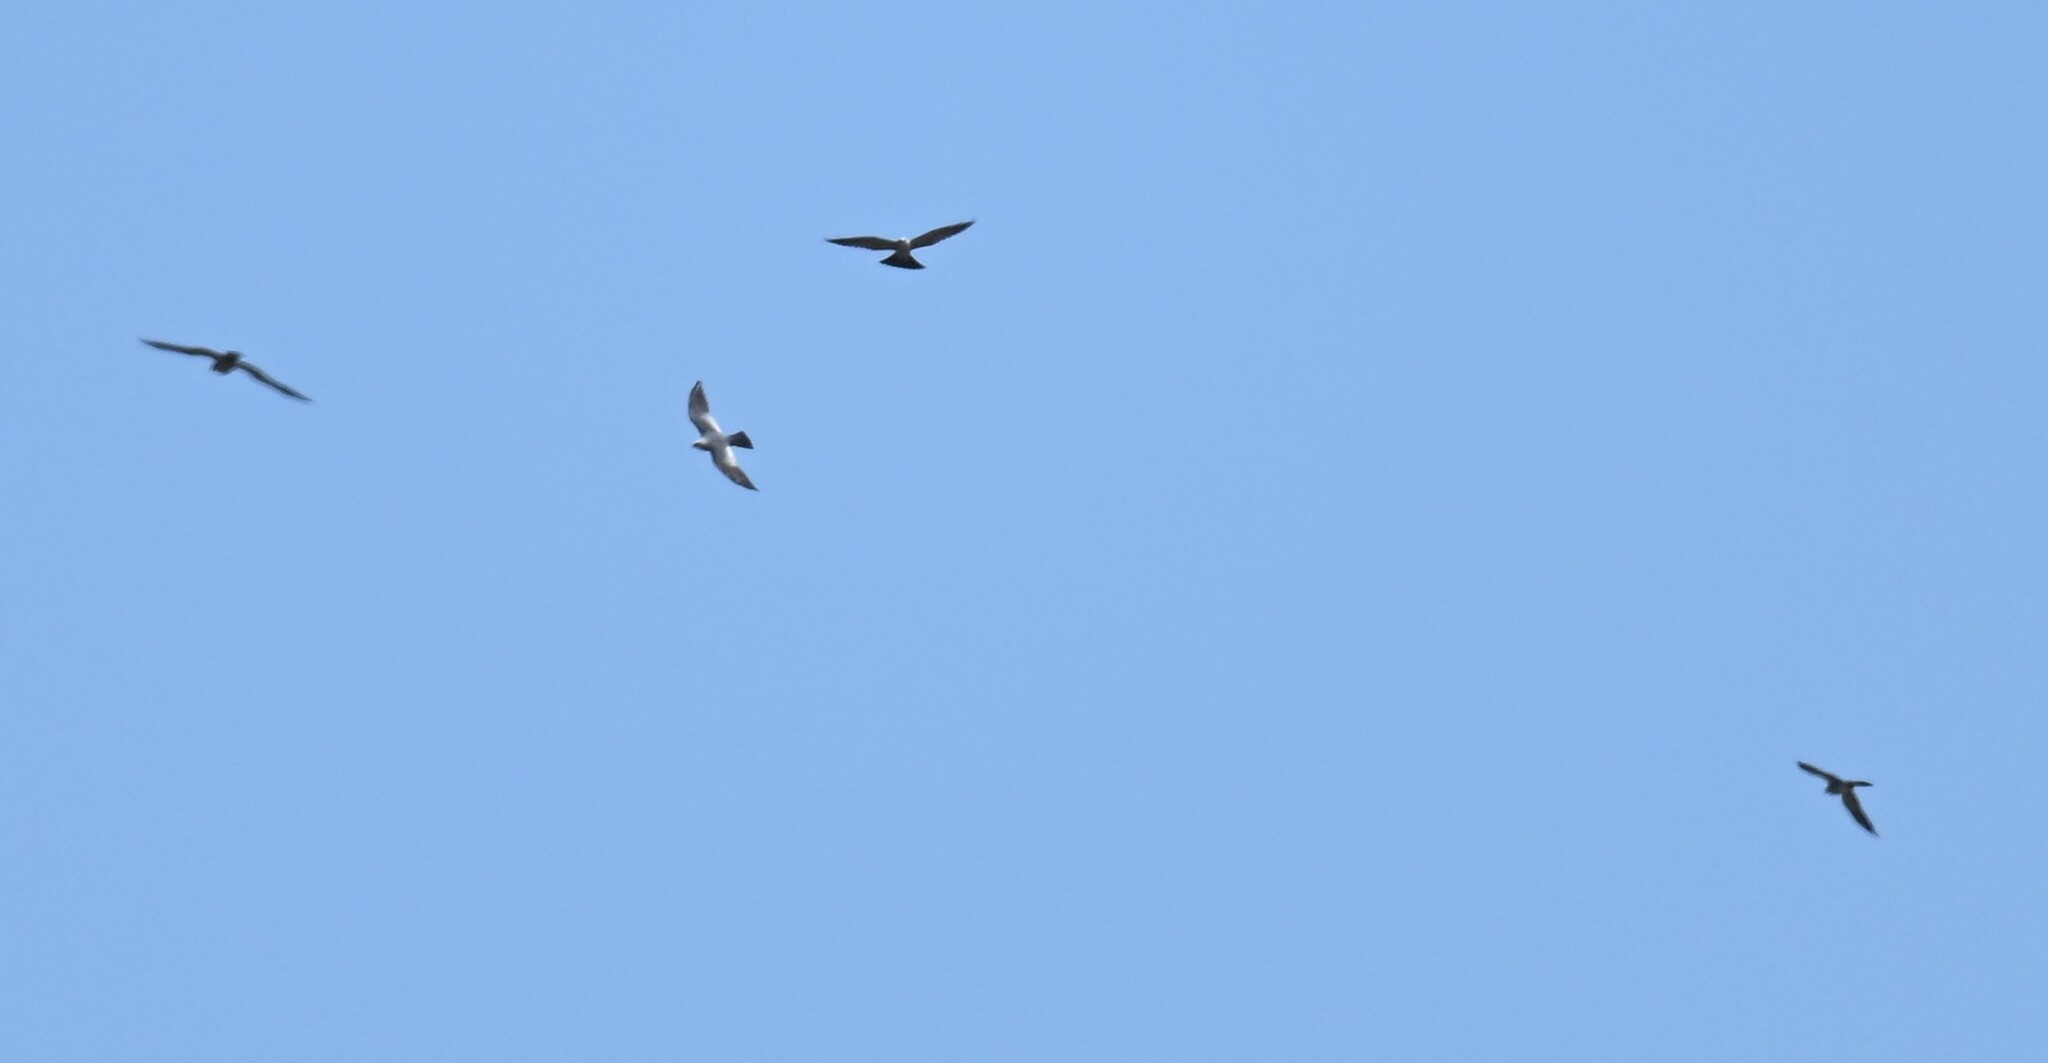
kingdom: Animalia
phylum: Chordata
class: Aves
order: Accipitriformes
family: Accipitridae
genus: Ictinia
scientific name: Ictinia mississippiensis
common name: Mississippi kite
